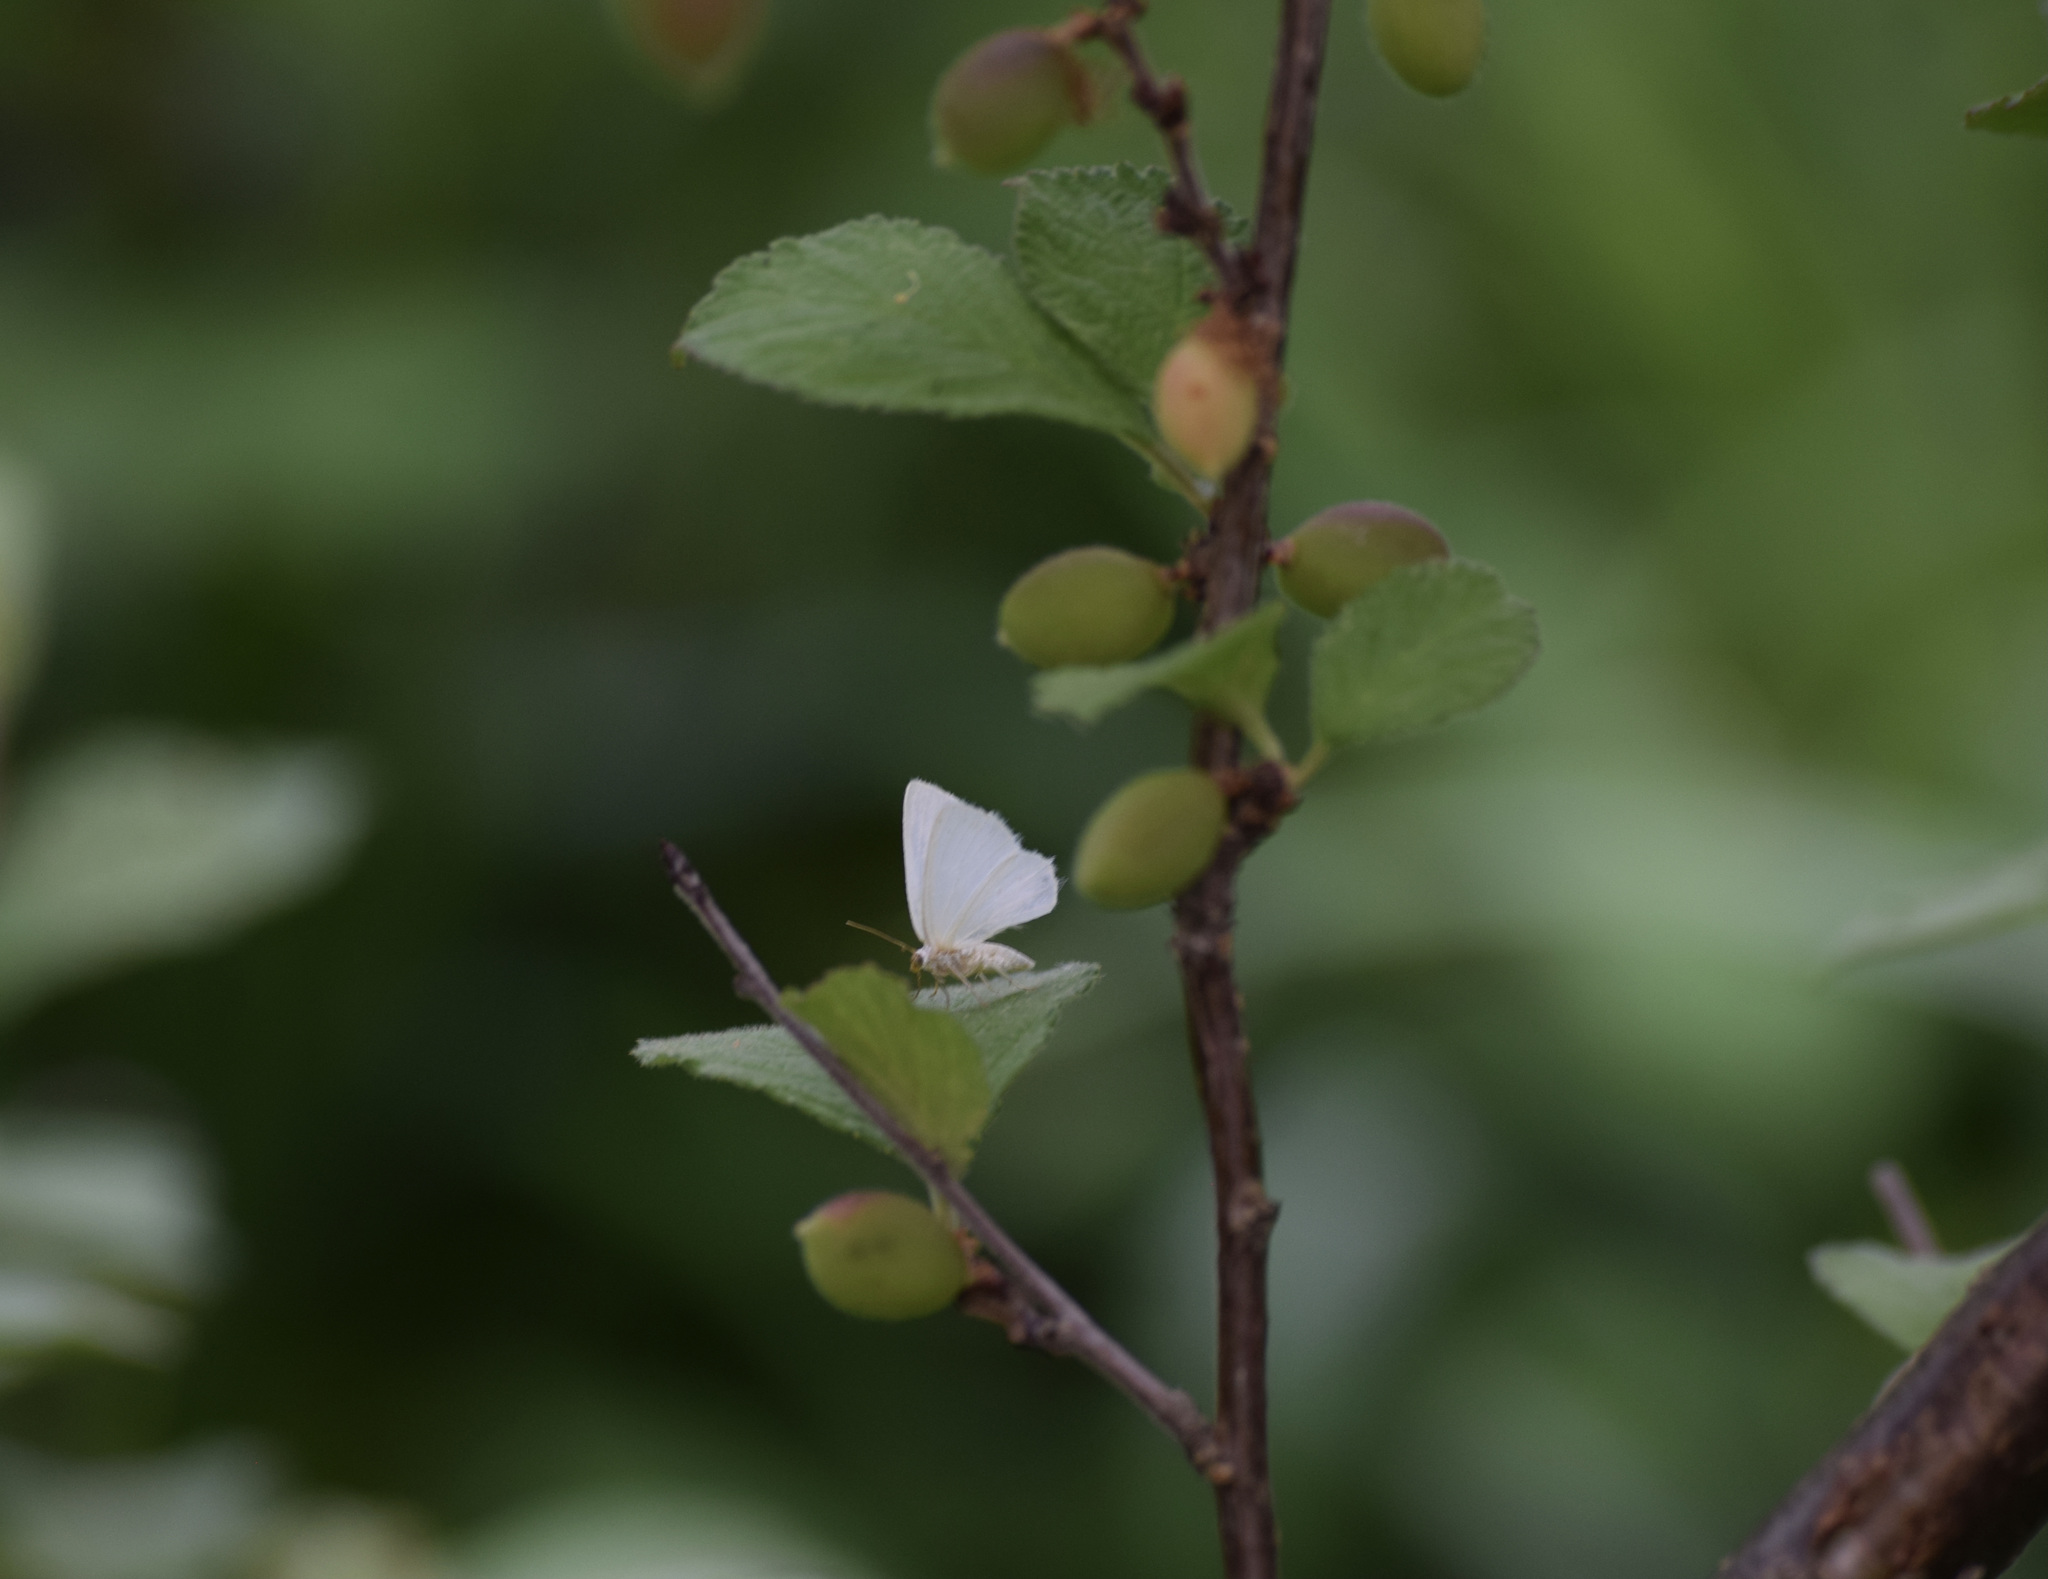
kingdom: Animalia
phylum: Arthropoda
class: Insecta
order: Lepidoptera
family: Geometridae
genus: Lomographa
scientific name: Lomographa vestaliata
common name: White spring moth
